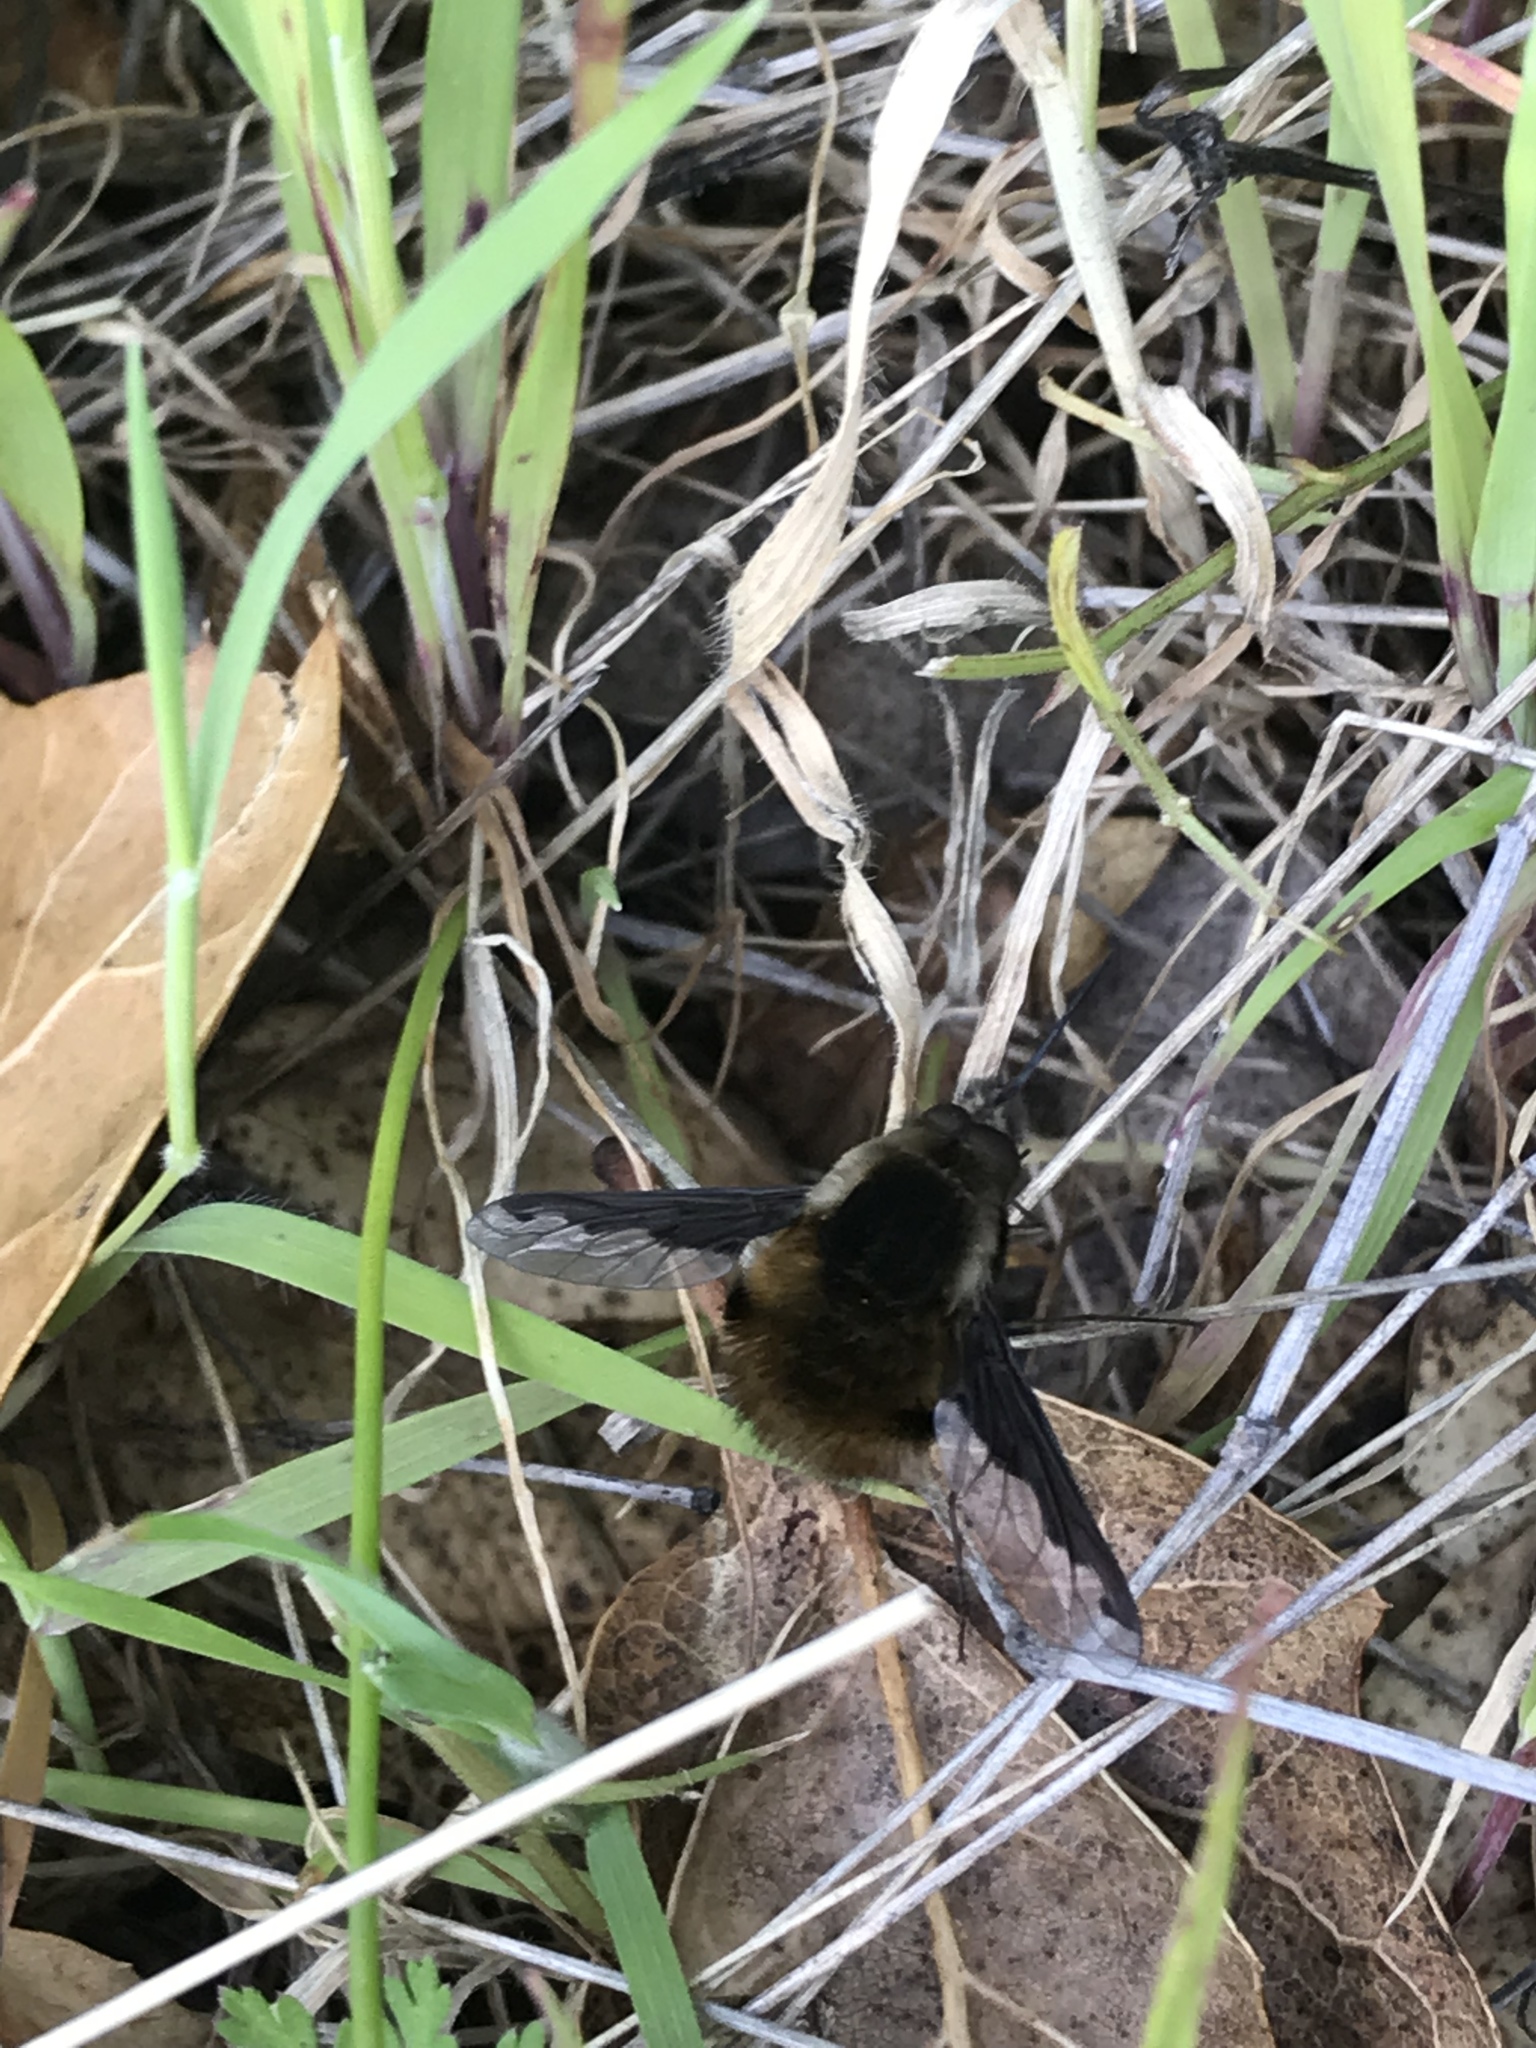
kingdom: Animalia
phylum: Arthropoda
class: Insecta
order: Diptera
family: Bombyliidae
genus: Bombylius
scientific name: Bombylius major
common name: Bee fly
